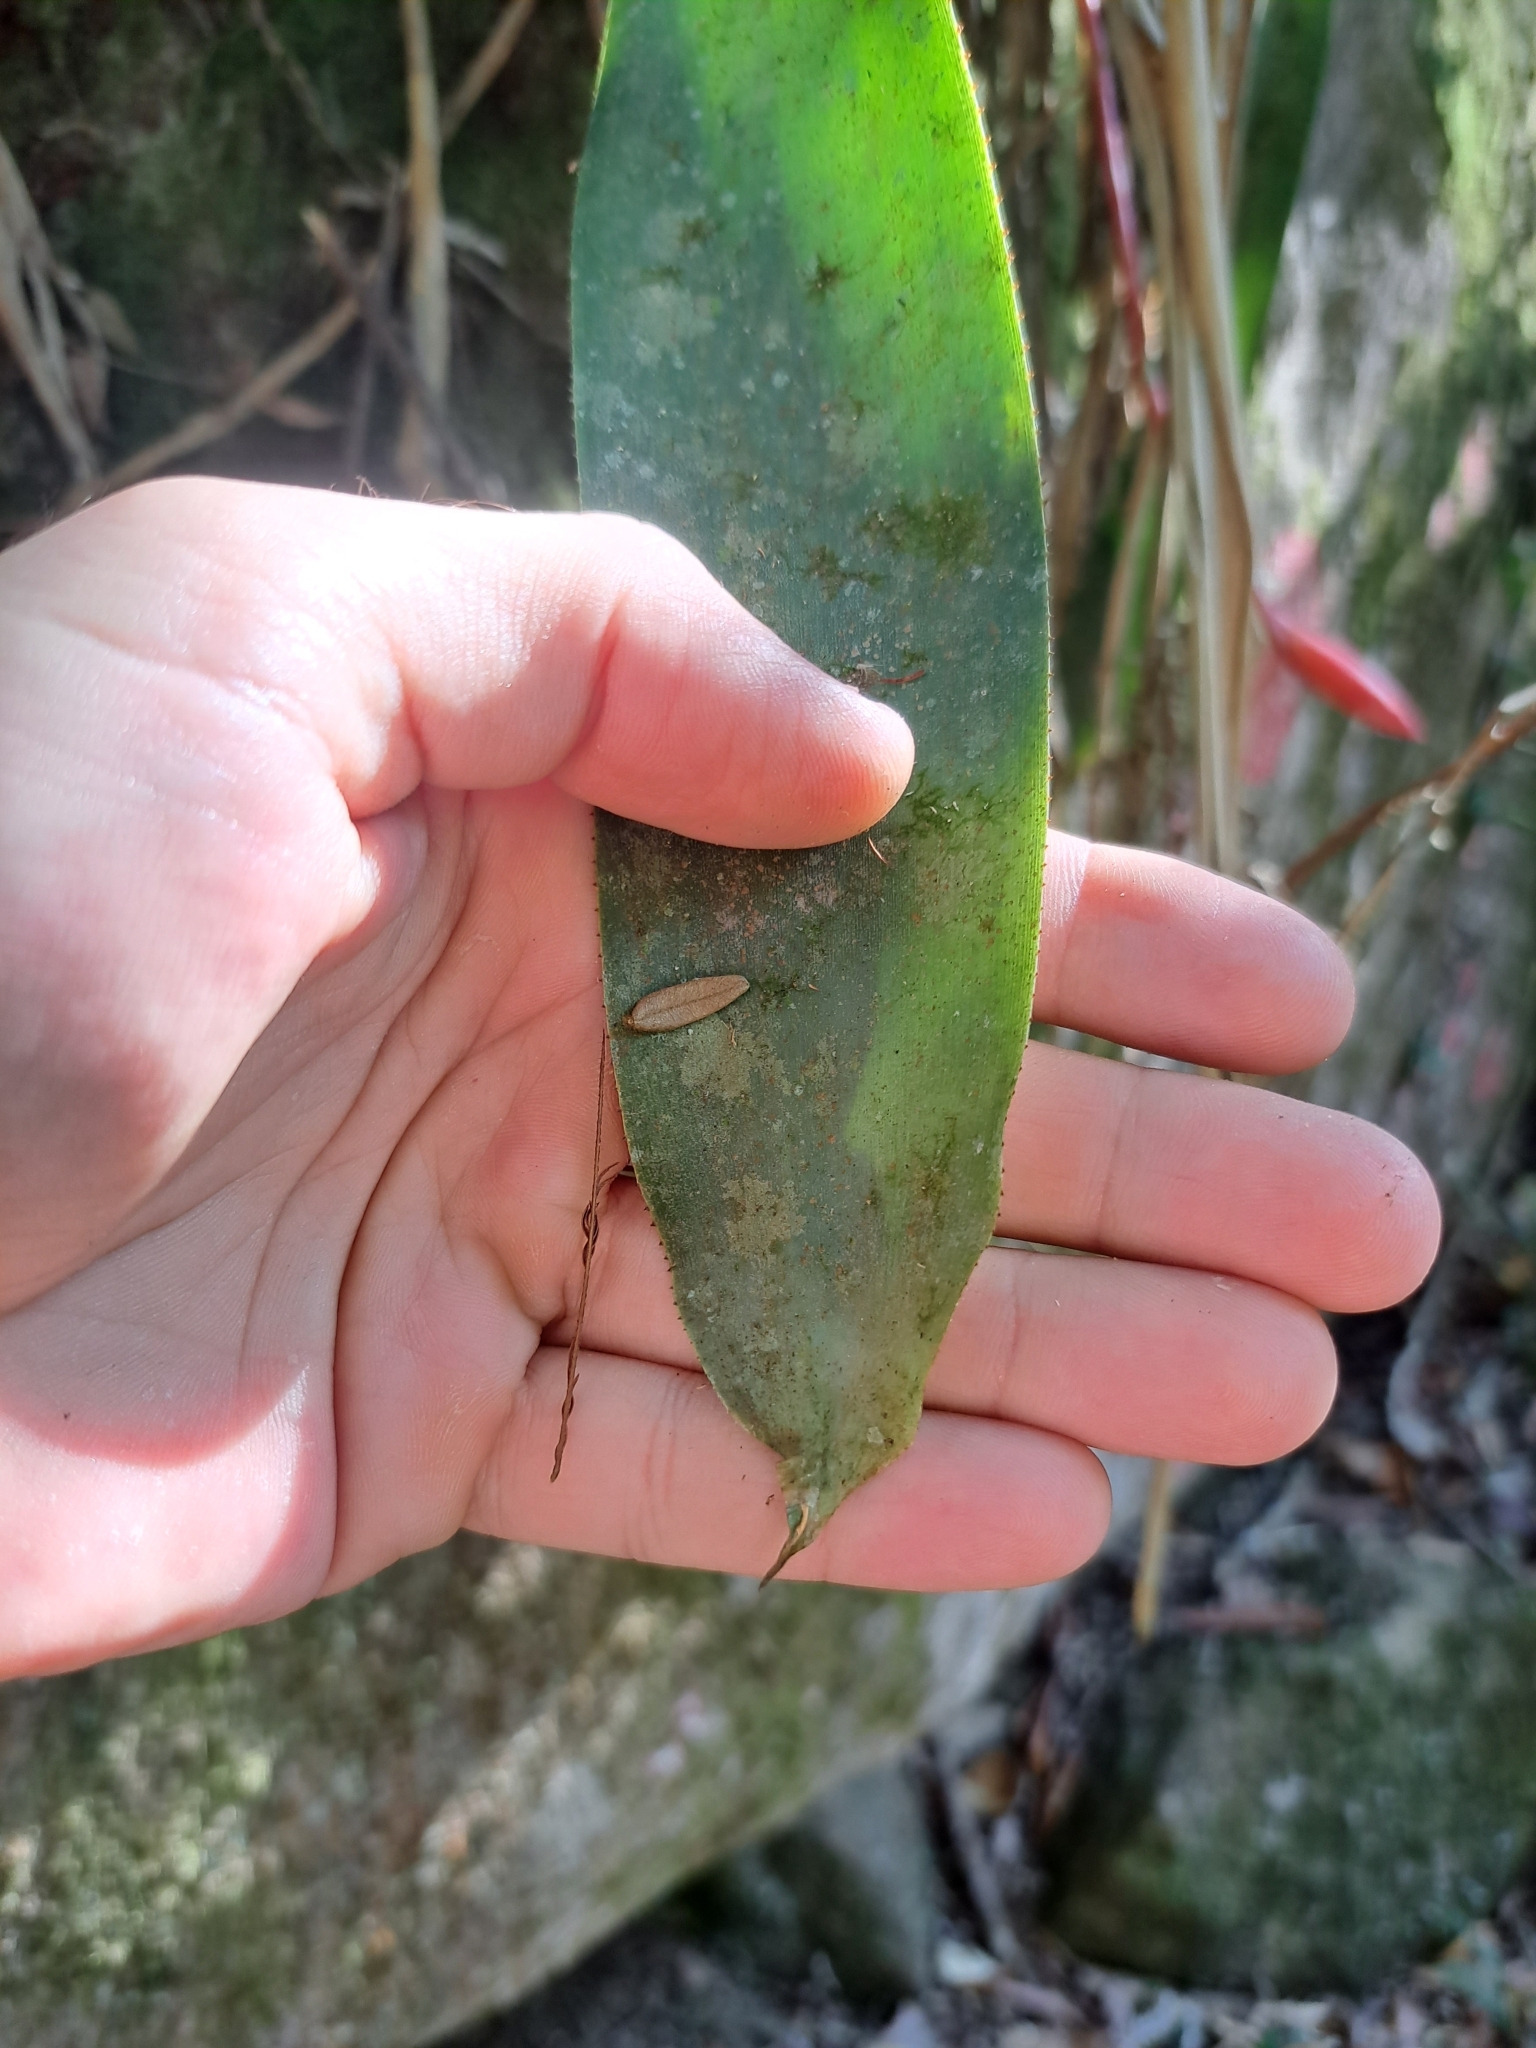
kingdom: Plantae
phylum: Tracheophyta
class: Liliopsida
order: Poales
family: Bromeliaceae
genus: Quesnelia
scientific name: Quesnelia lateralis
